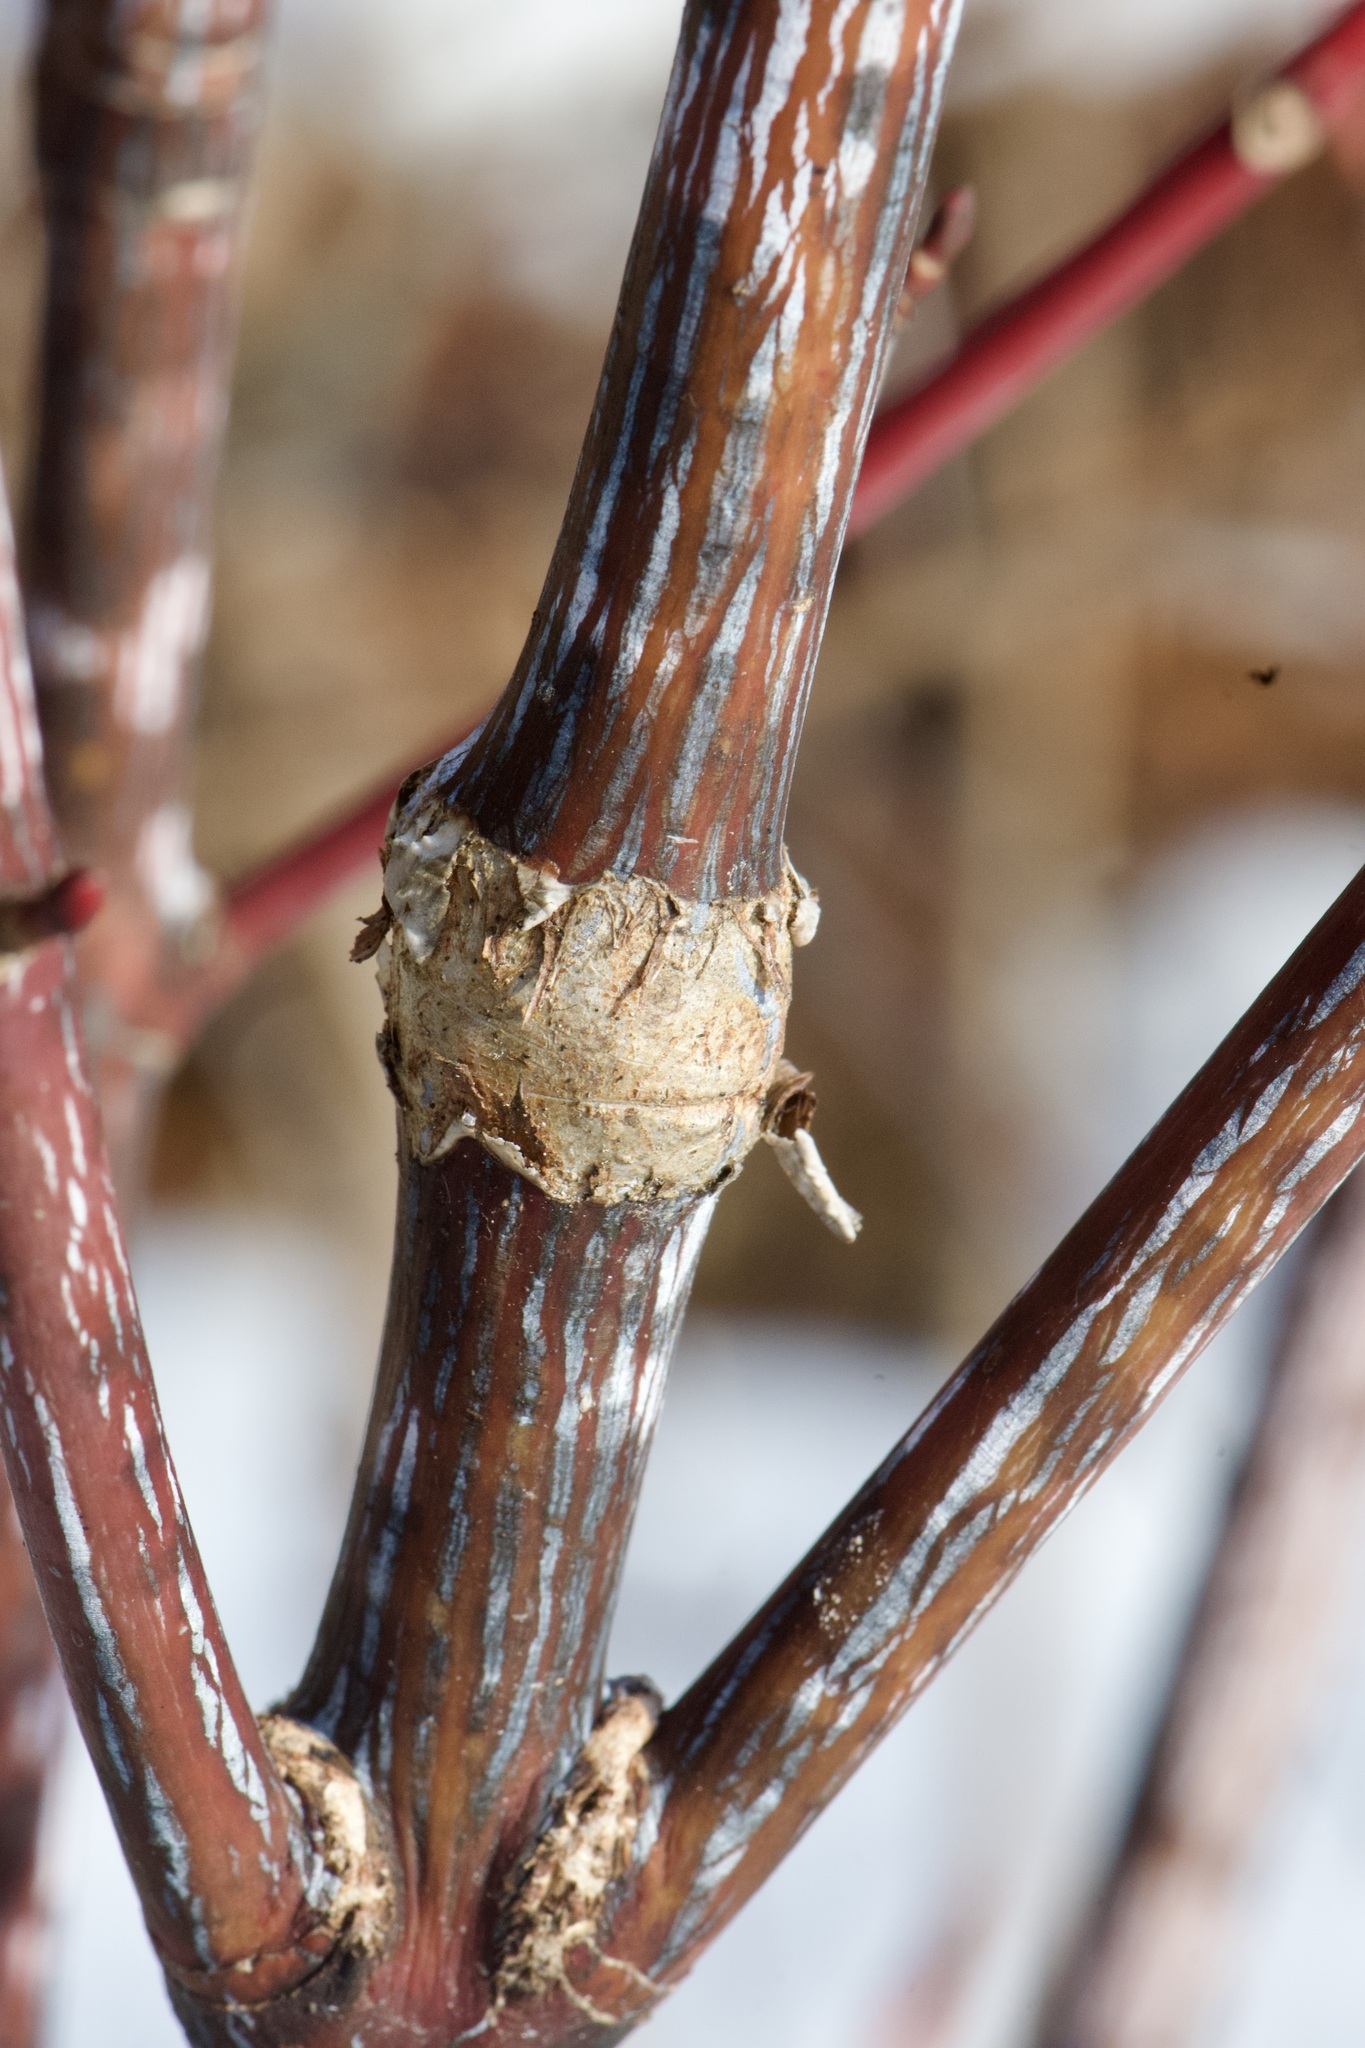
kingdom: Plantae
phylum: Tracheophyta
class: Magnoliopsida
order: Sapindales
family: Sapindaceae
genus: Acer
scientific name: Acer pensylvanicum
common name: Moosewood
